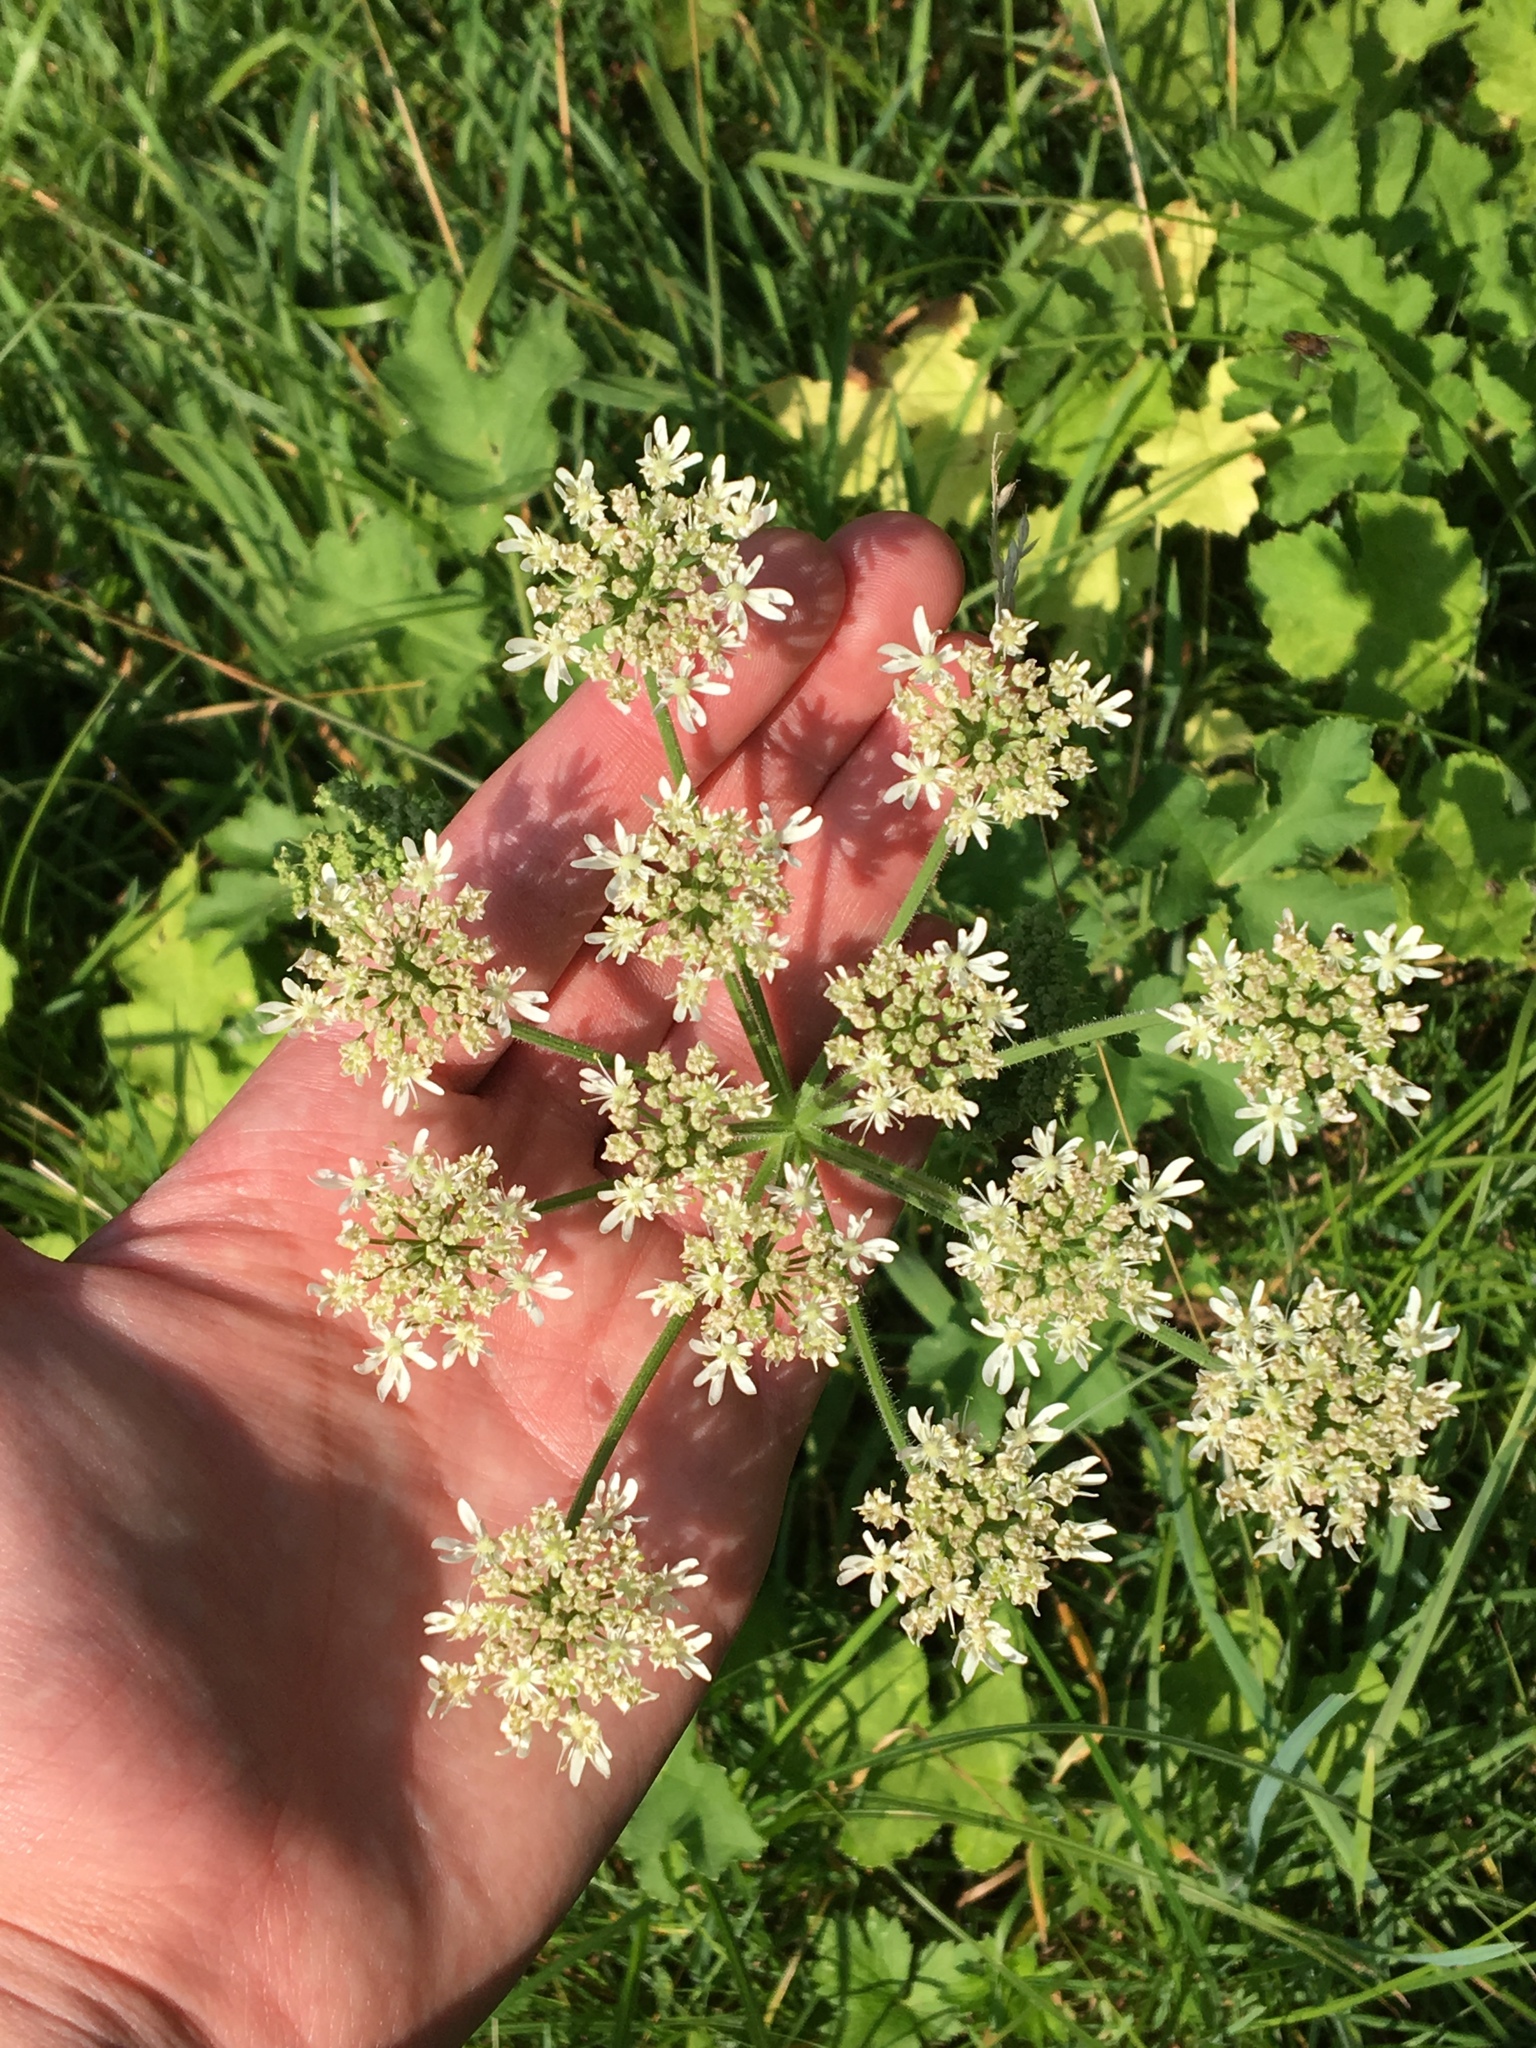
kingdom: Plantae
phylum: Tracheophyta
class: Magnoliopsida
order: Apiales
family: Apiaceae
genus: Heracleum
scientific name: Heracleum sphondylium
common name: Hogweed
